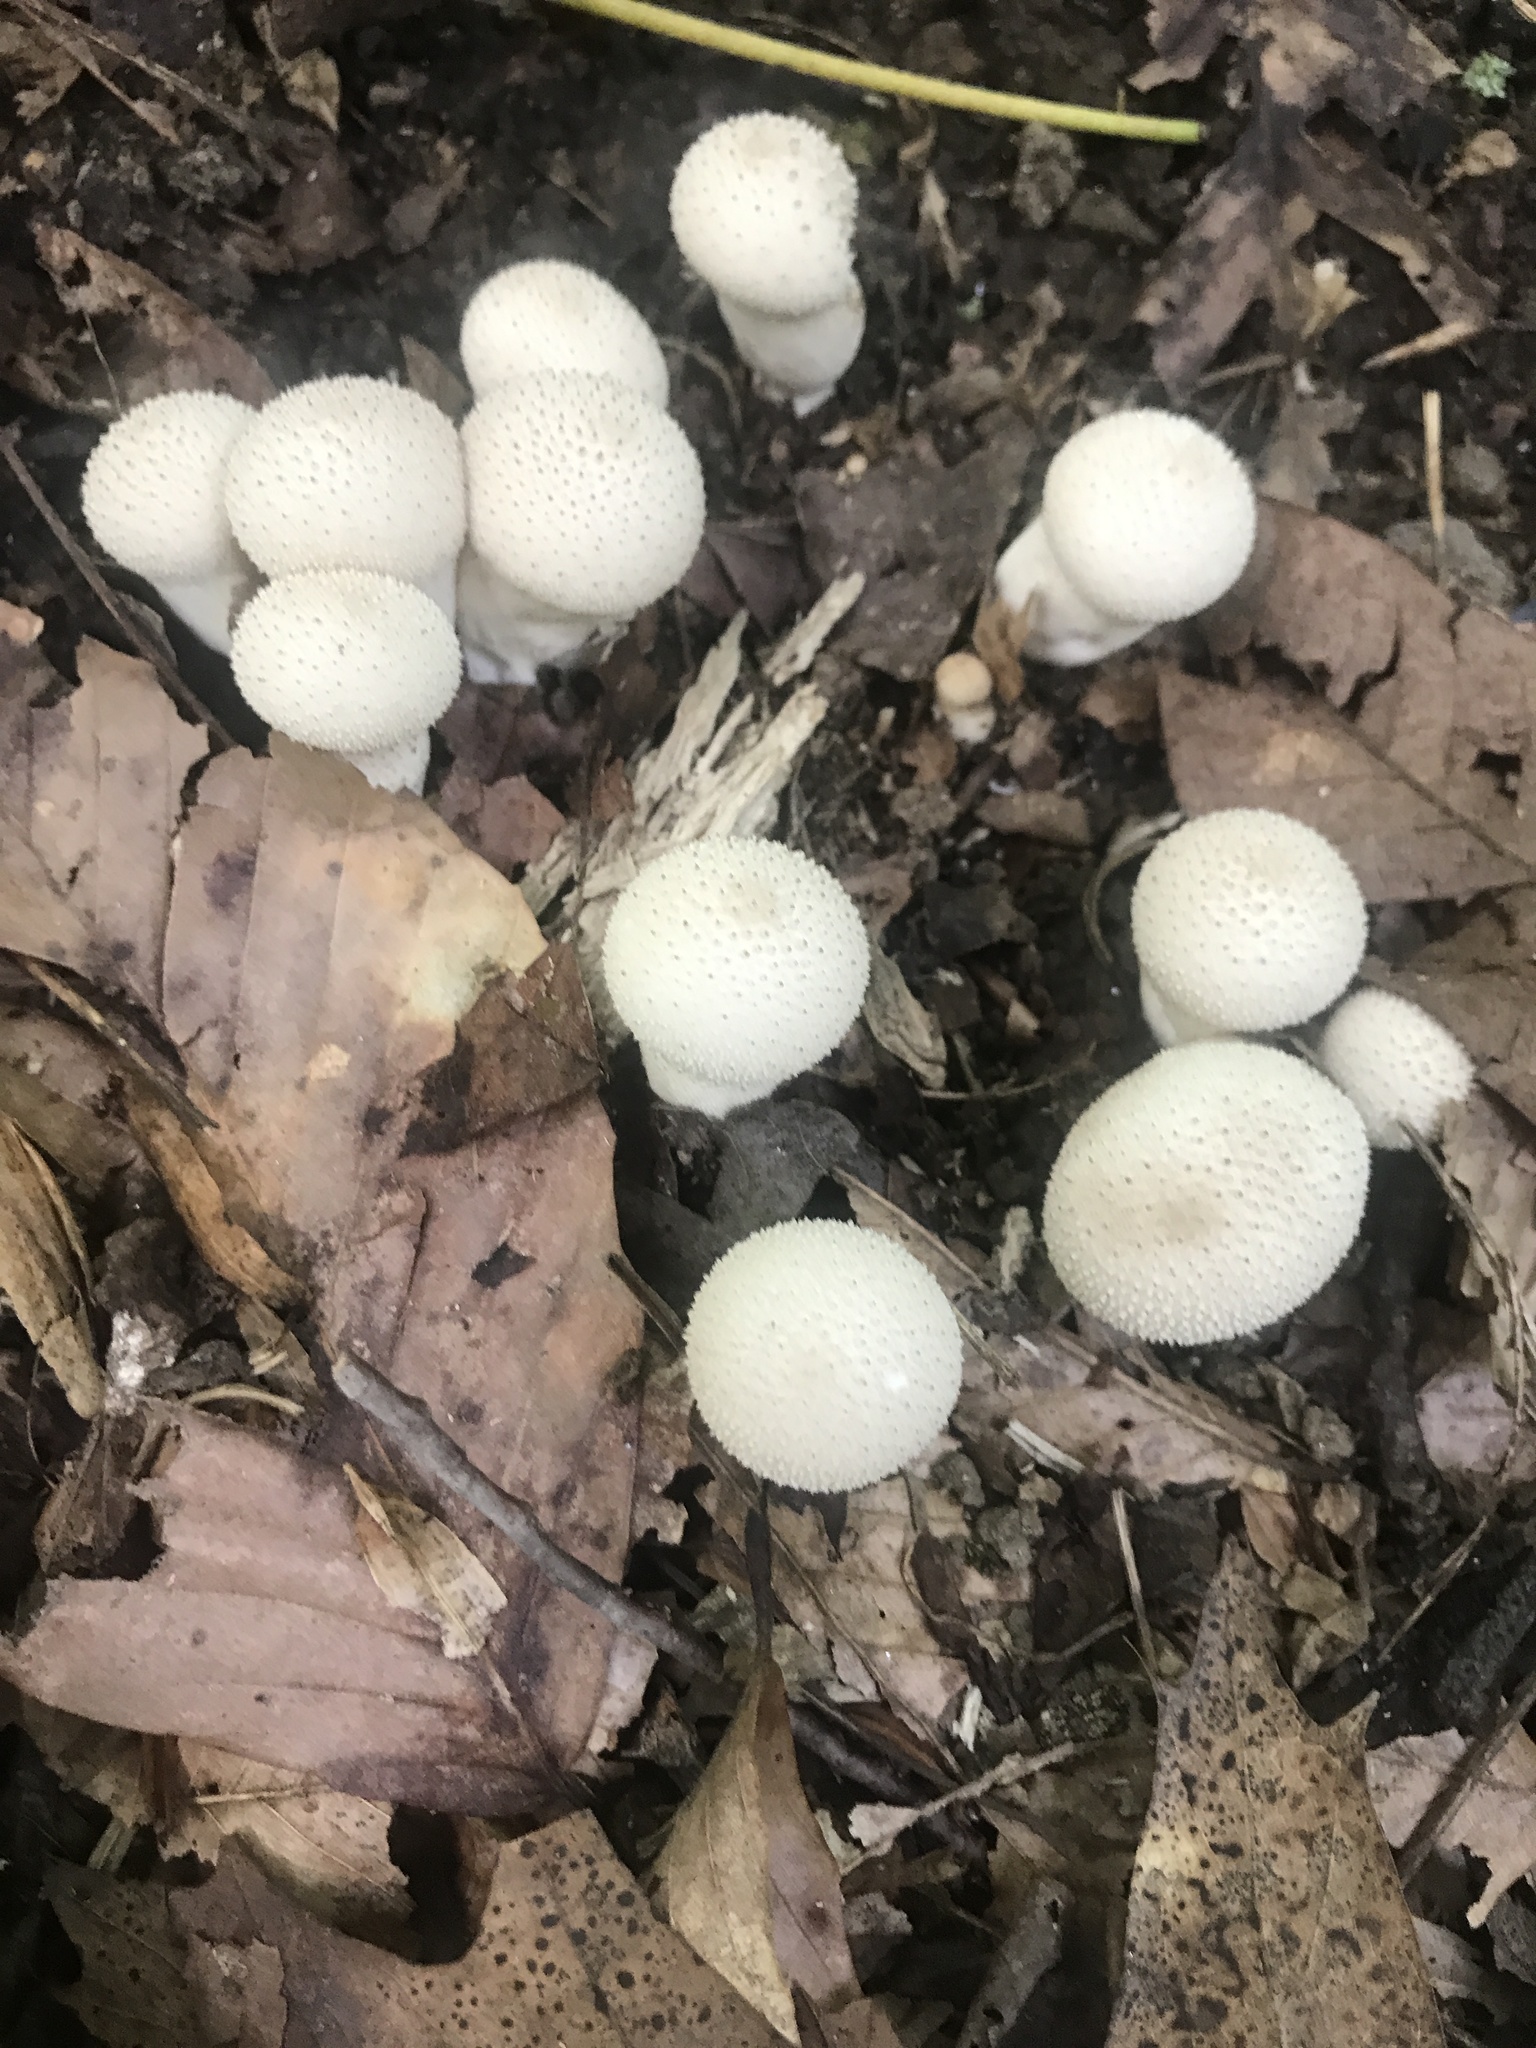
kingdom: Fungi
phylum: Basidiomycota
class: Agaricomycetes
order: Agaricales
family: Lycoperdaceae
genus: Lycoperdon
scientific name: Lycoperdon perlatum
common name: Common puffball
